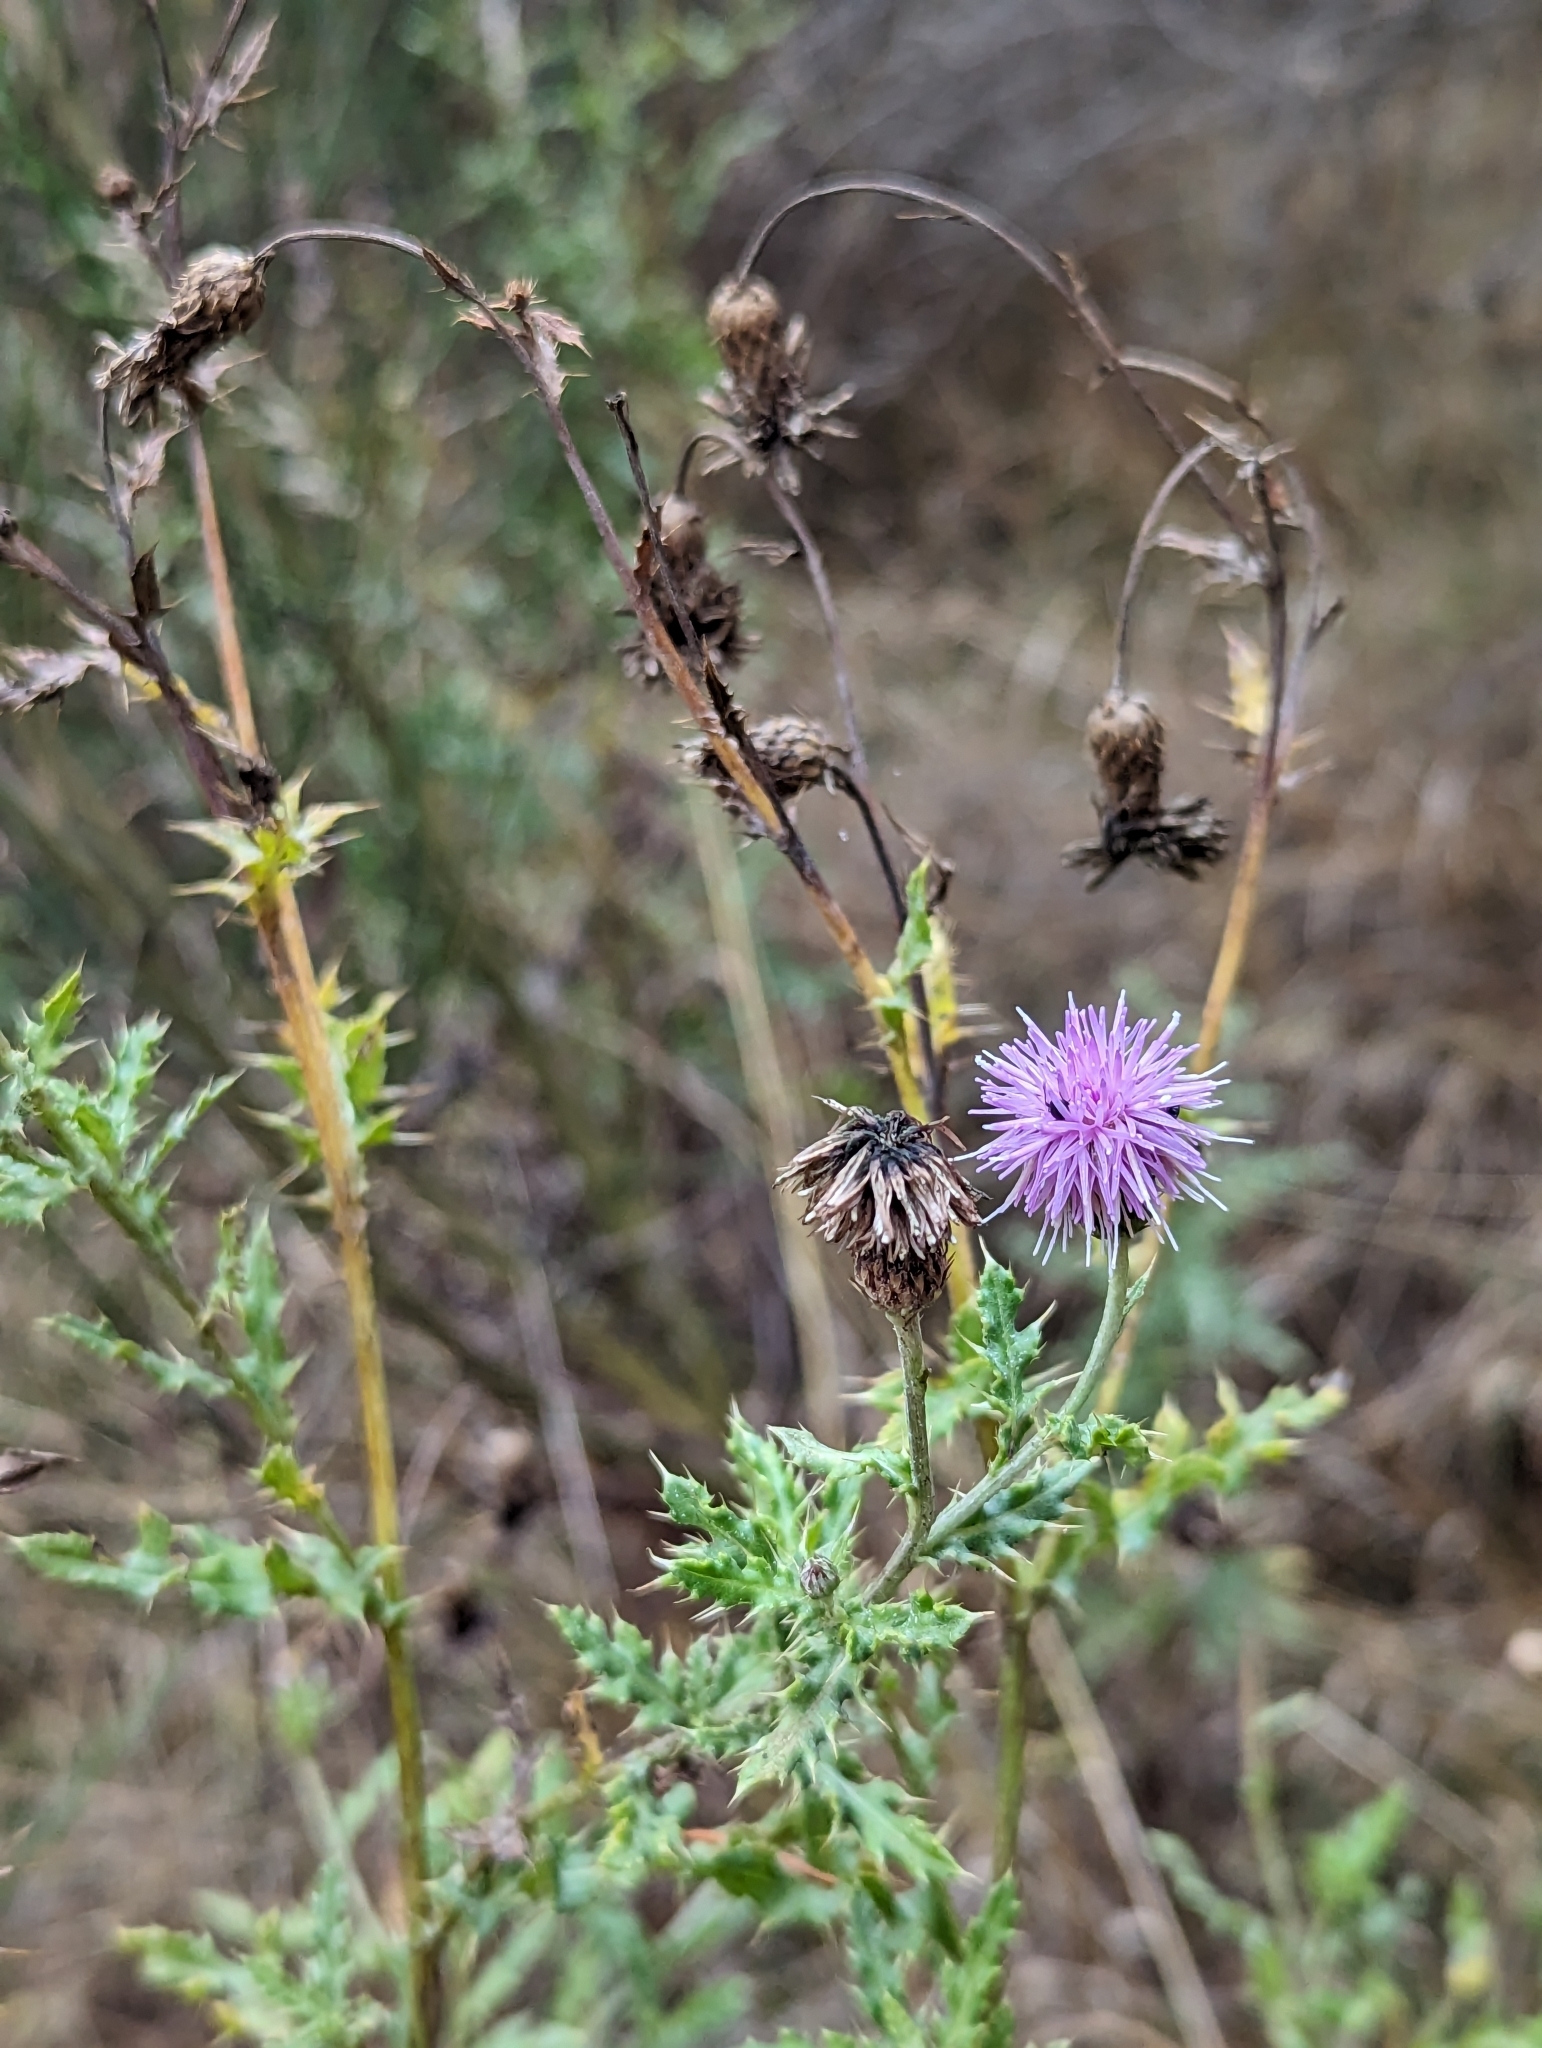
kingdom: Plantae
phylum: Tracheophyta
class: Magnoliopsida
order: Asterales
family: Asteraceae
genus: Cirsium
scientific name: Cirsium arvense
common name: Creeping thistle
